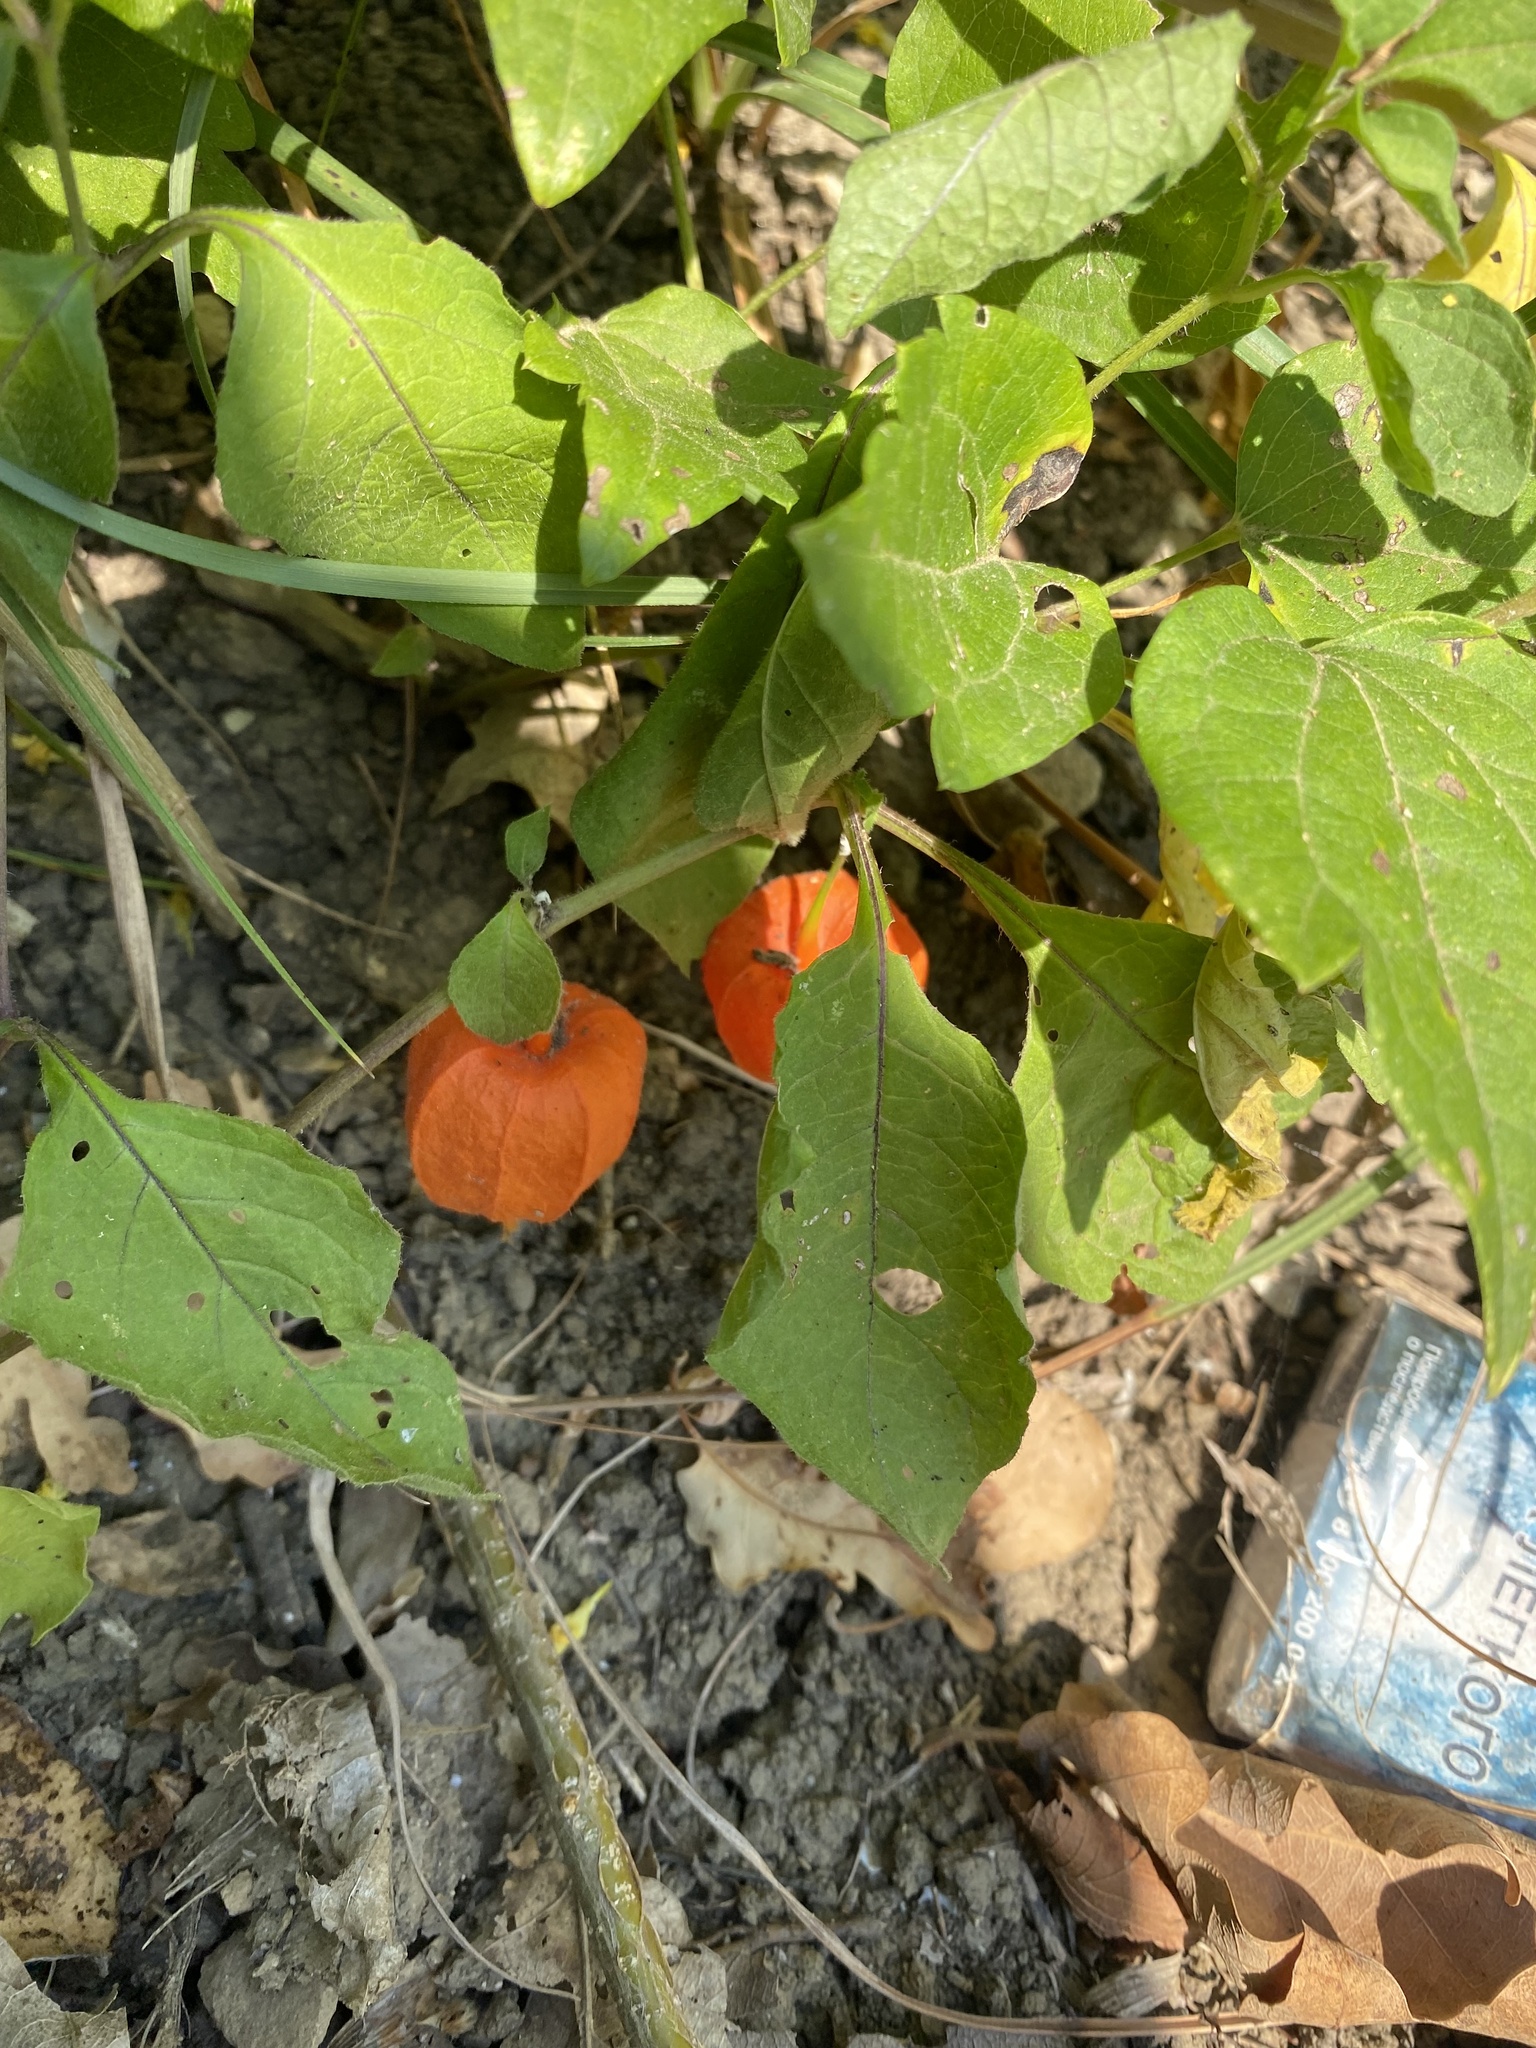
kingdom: Plantae
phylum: Tracheophyta
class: Magnoliopsida
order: Solanales
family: Solanaceae
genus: Alkekengi
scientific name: Alkekengi officinarum
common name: Japanese-lantern
